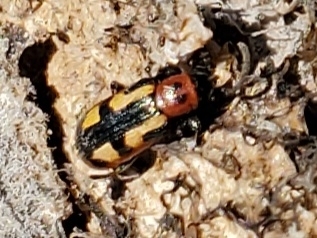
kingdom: Animalia
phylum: Arthropoda
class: Insecta
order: Coleoptera
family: Chrysomelidae
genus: Crioceris
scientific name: Crioceris asparagi
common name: Asparagus beetle
